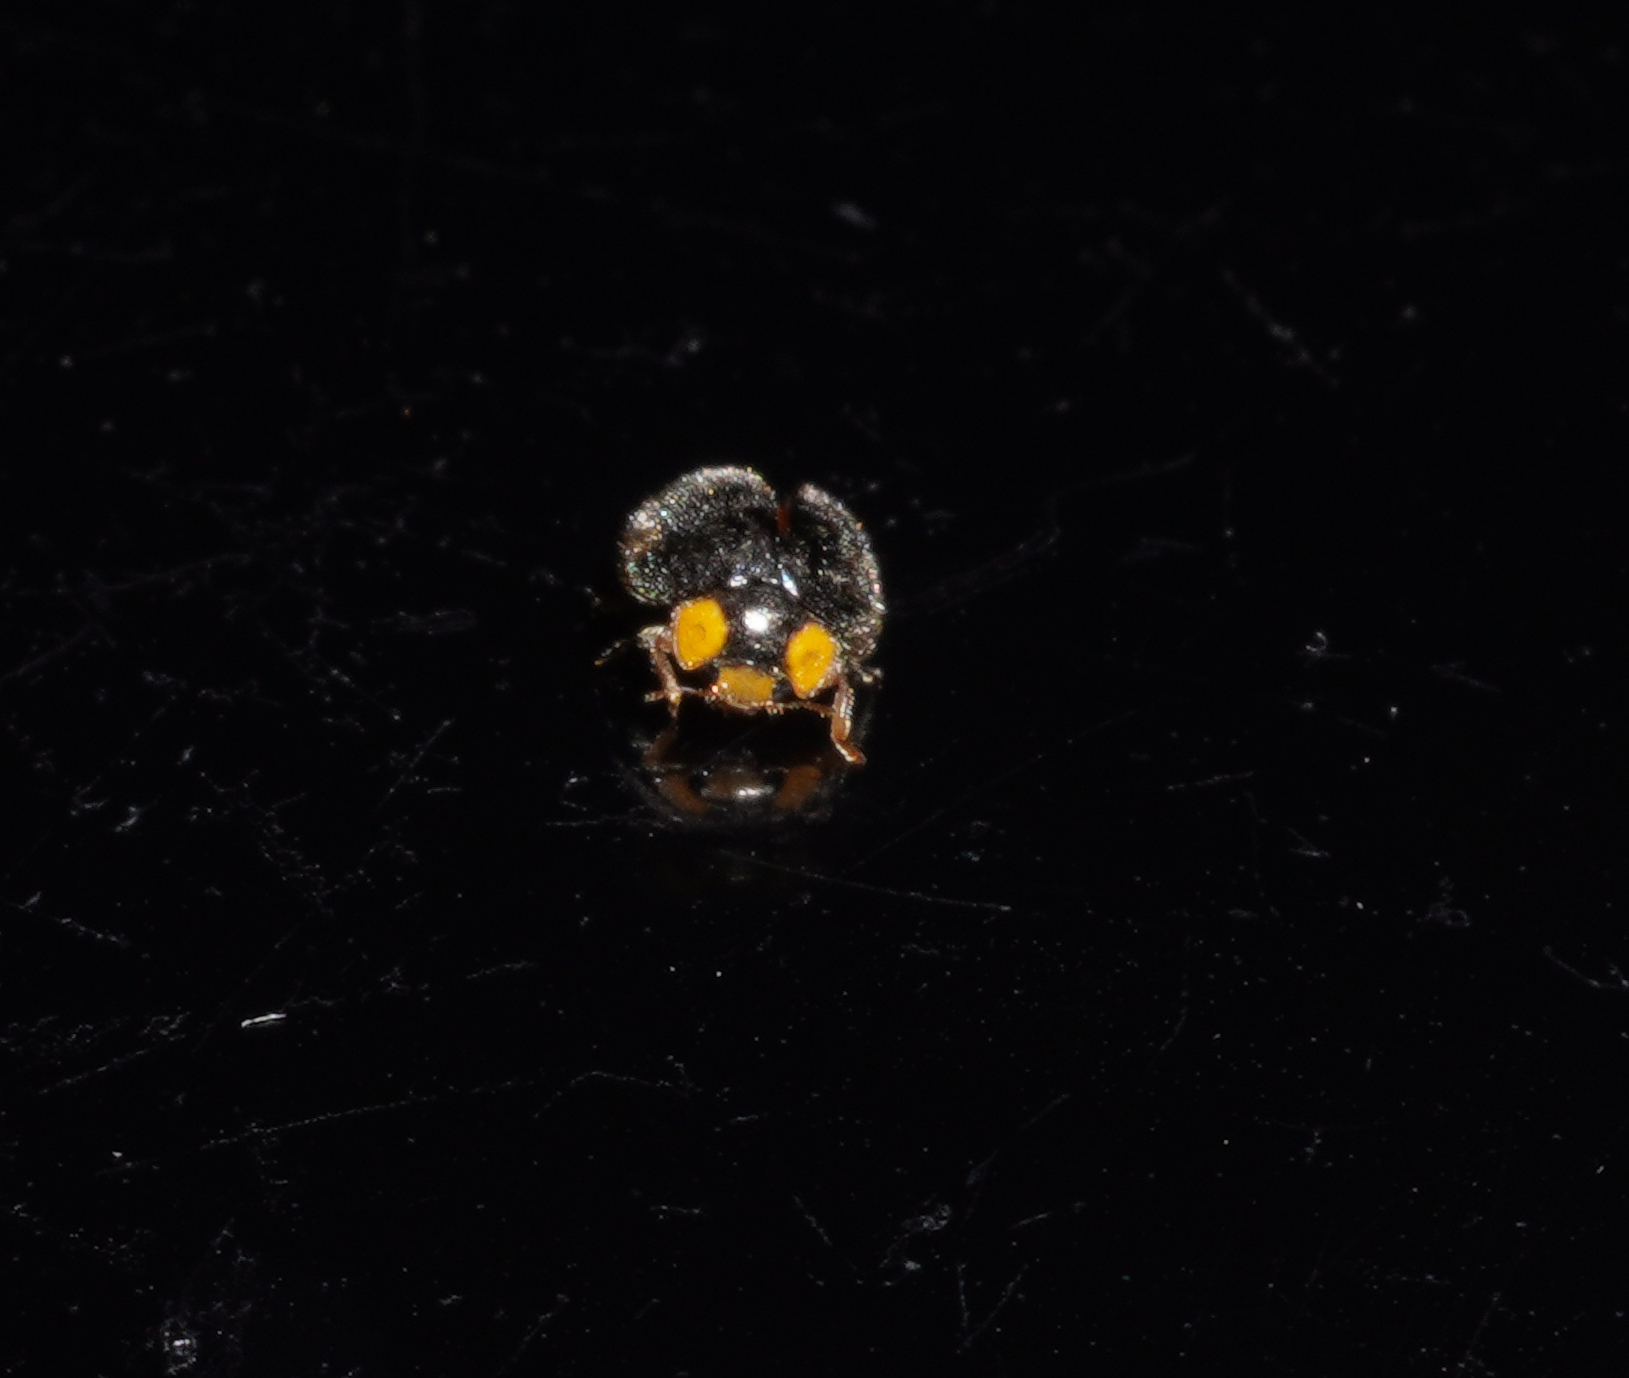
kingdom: Animalia
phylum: Arthropoda
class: Insecta
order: Coleoptera
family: Coccinellidae
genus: Scymnodes
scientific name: Scymnodes lividigaster
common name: Yellowshouldered lady beetle
